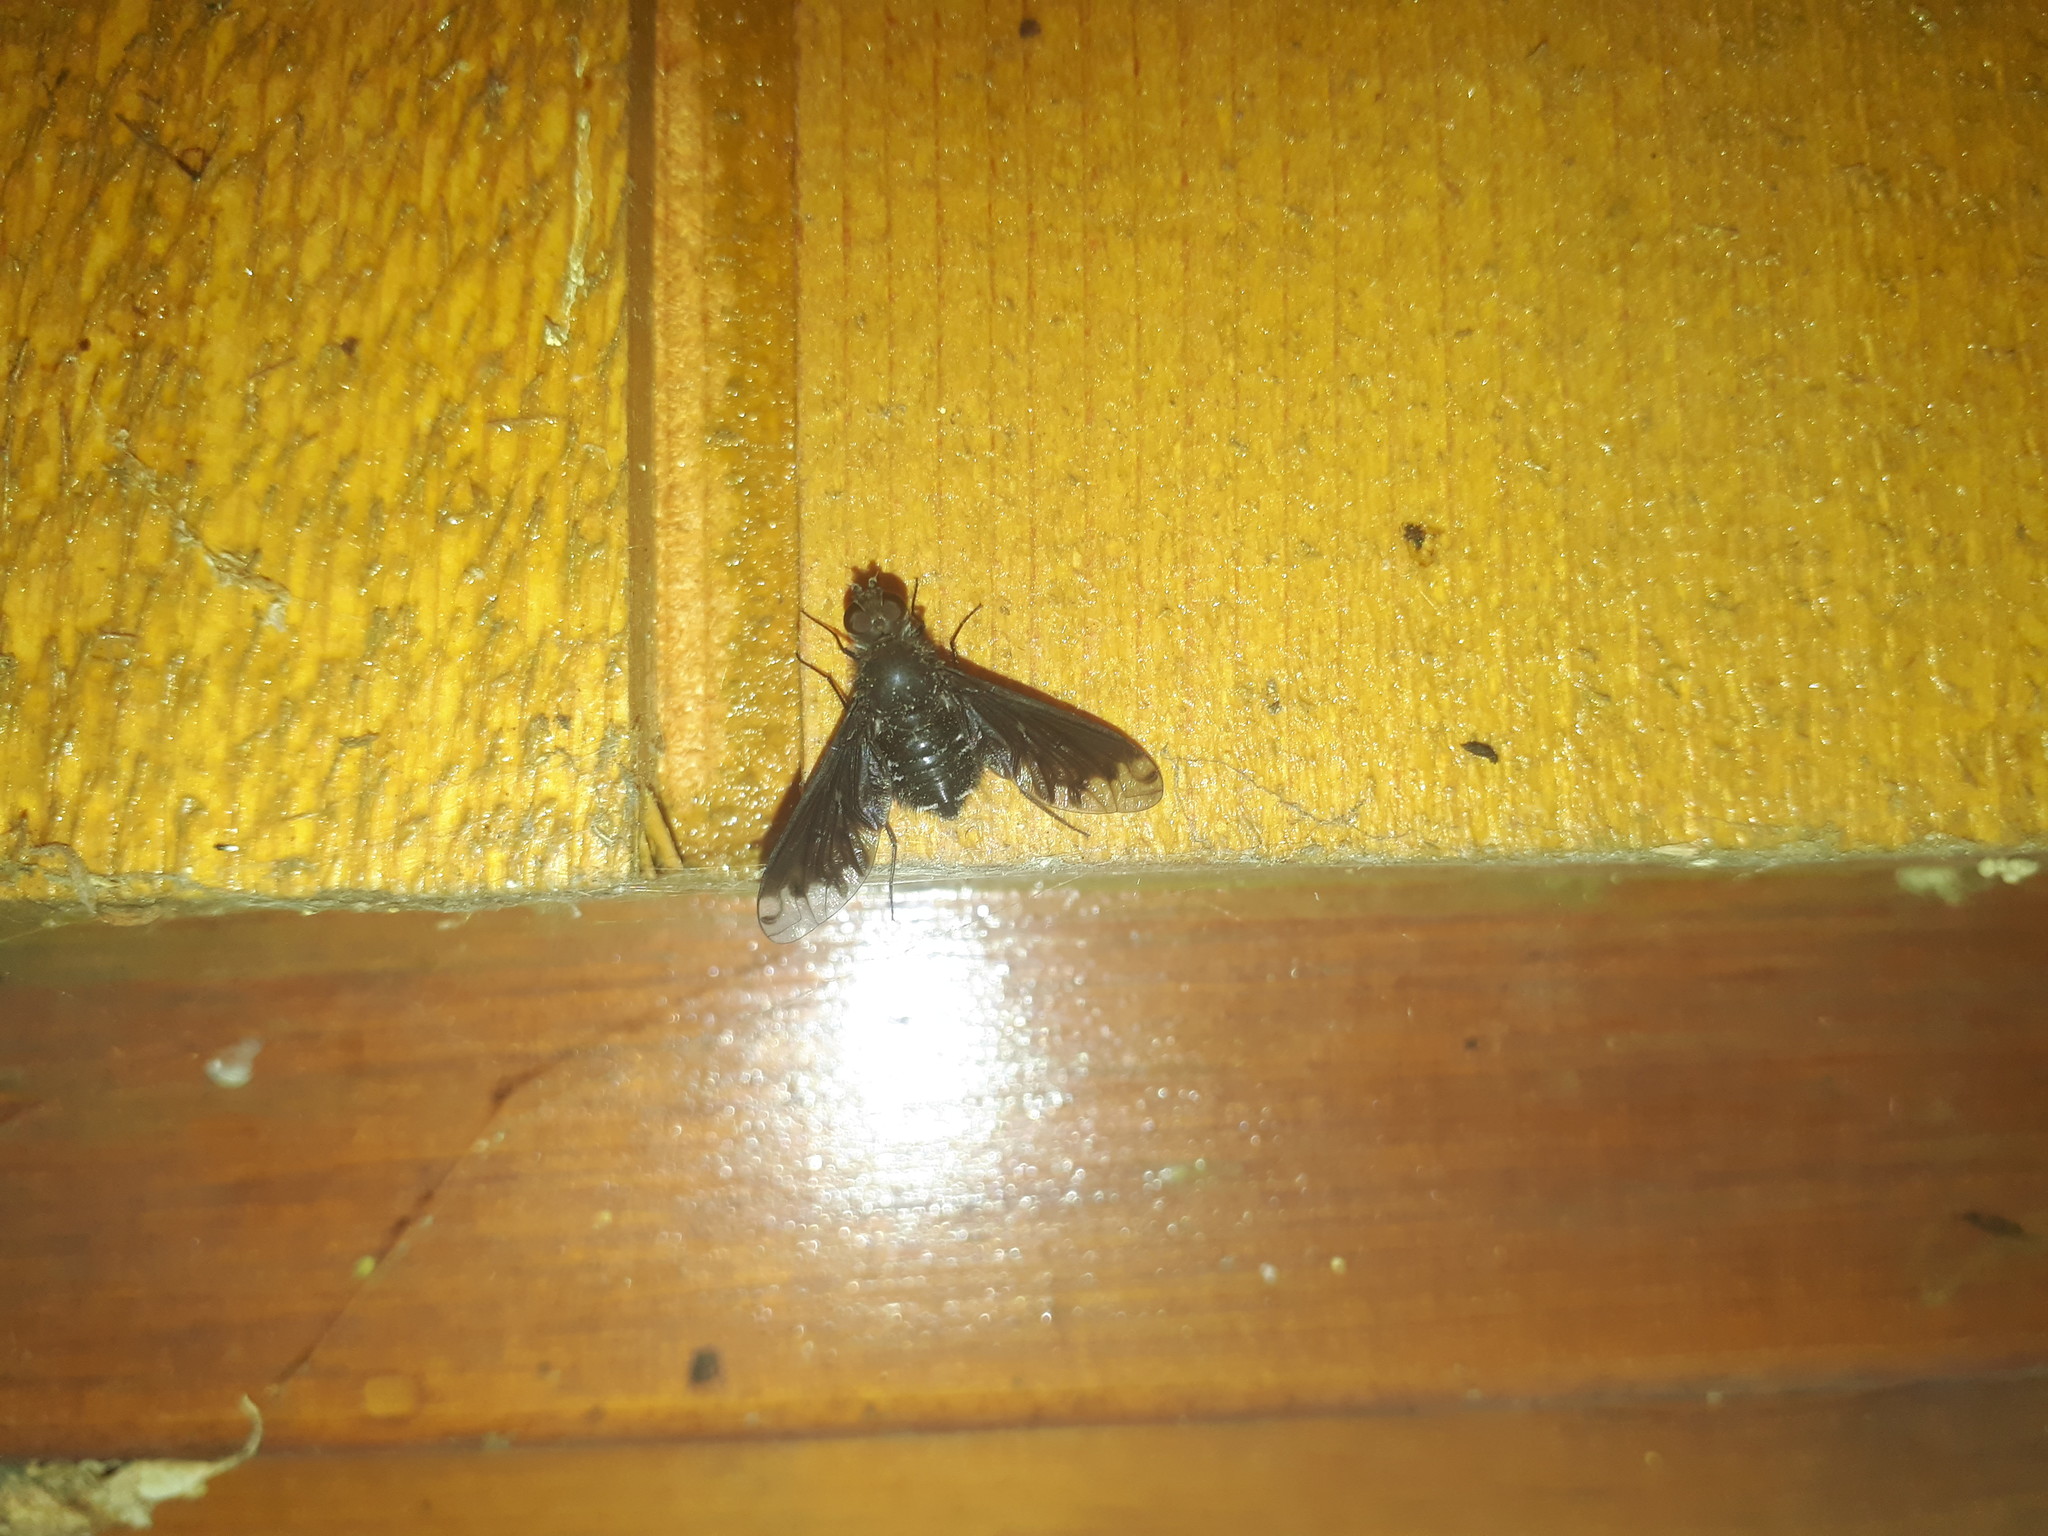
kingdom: Animalia
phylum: Arthropoda
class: Insecta
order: Diptera
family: Bombyliidae
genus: Anthrax
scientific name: Anthrax anthrax
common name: Anthracite bee-fly
